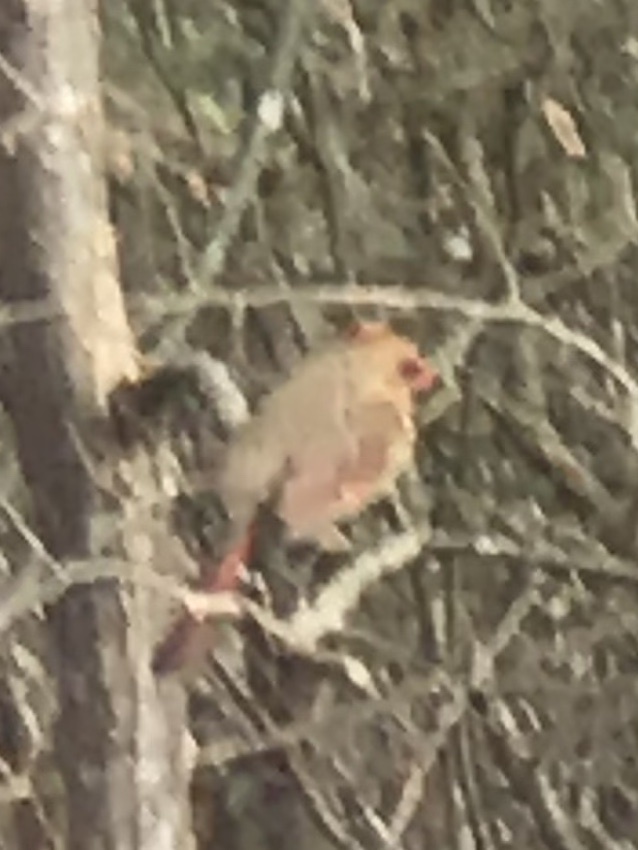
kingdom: Animalia
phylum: Chordata
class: Aves
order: Passeriformes
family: Cardinalidae
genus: Cardinalis
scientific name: Cardinalis cardinalis
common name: Northern cardinal
